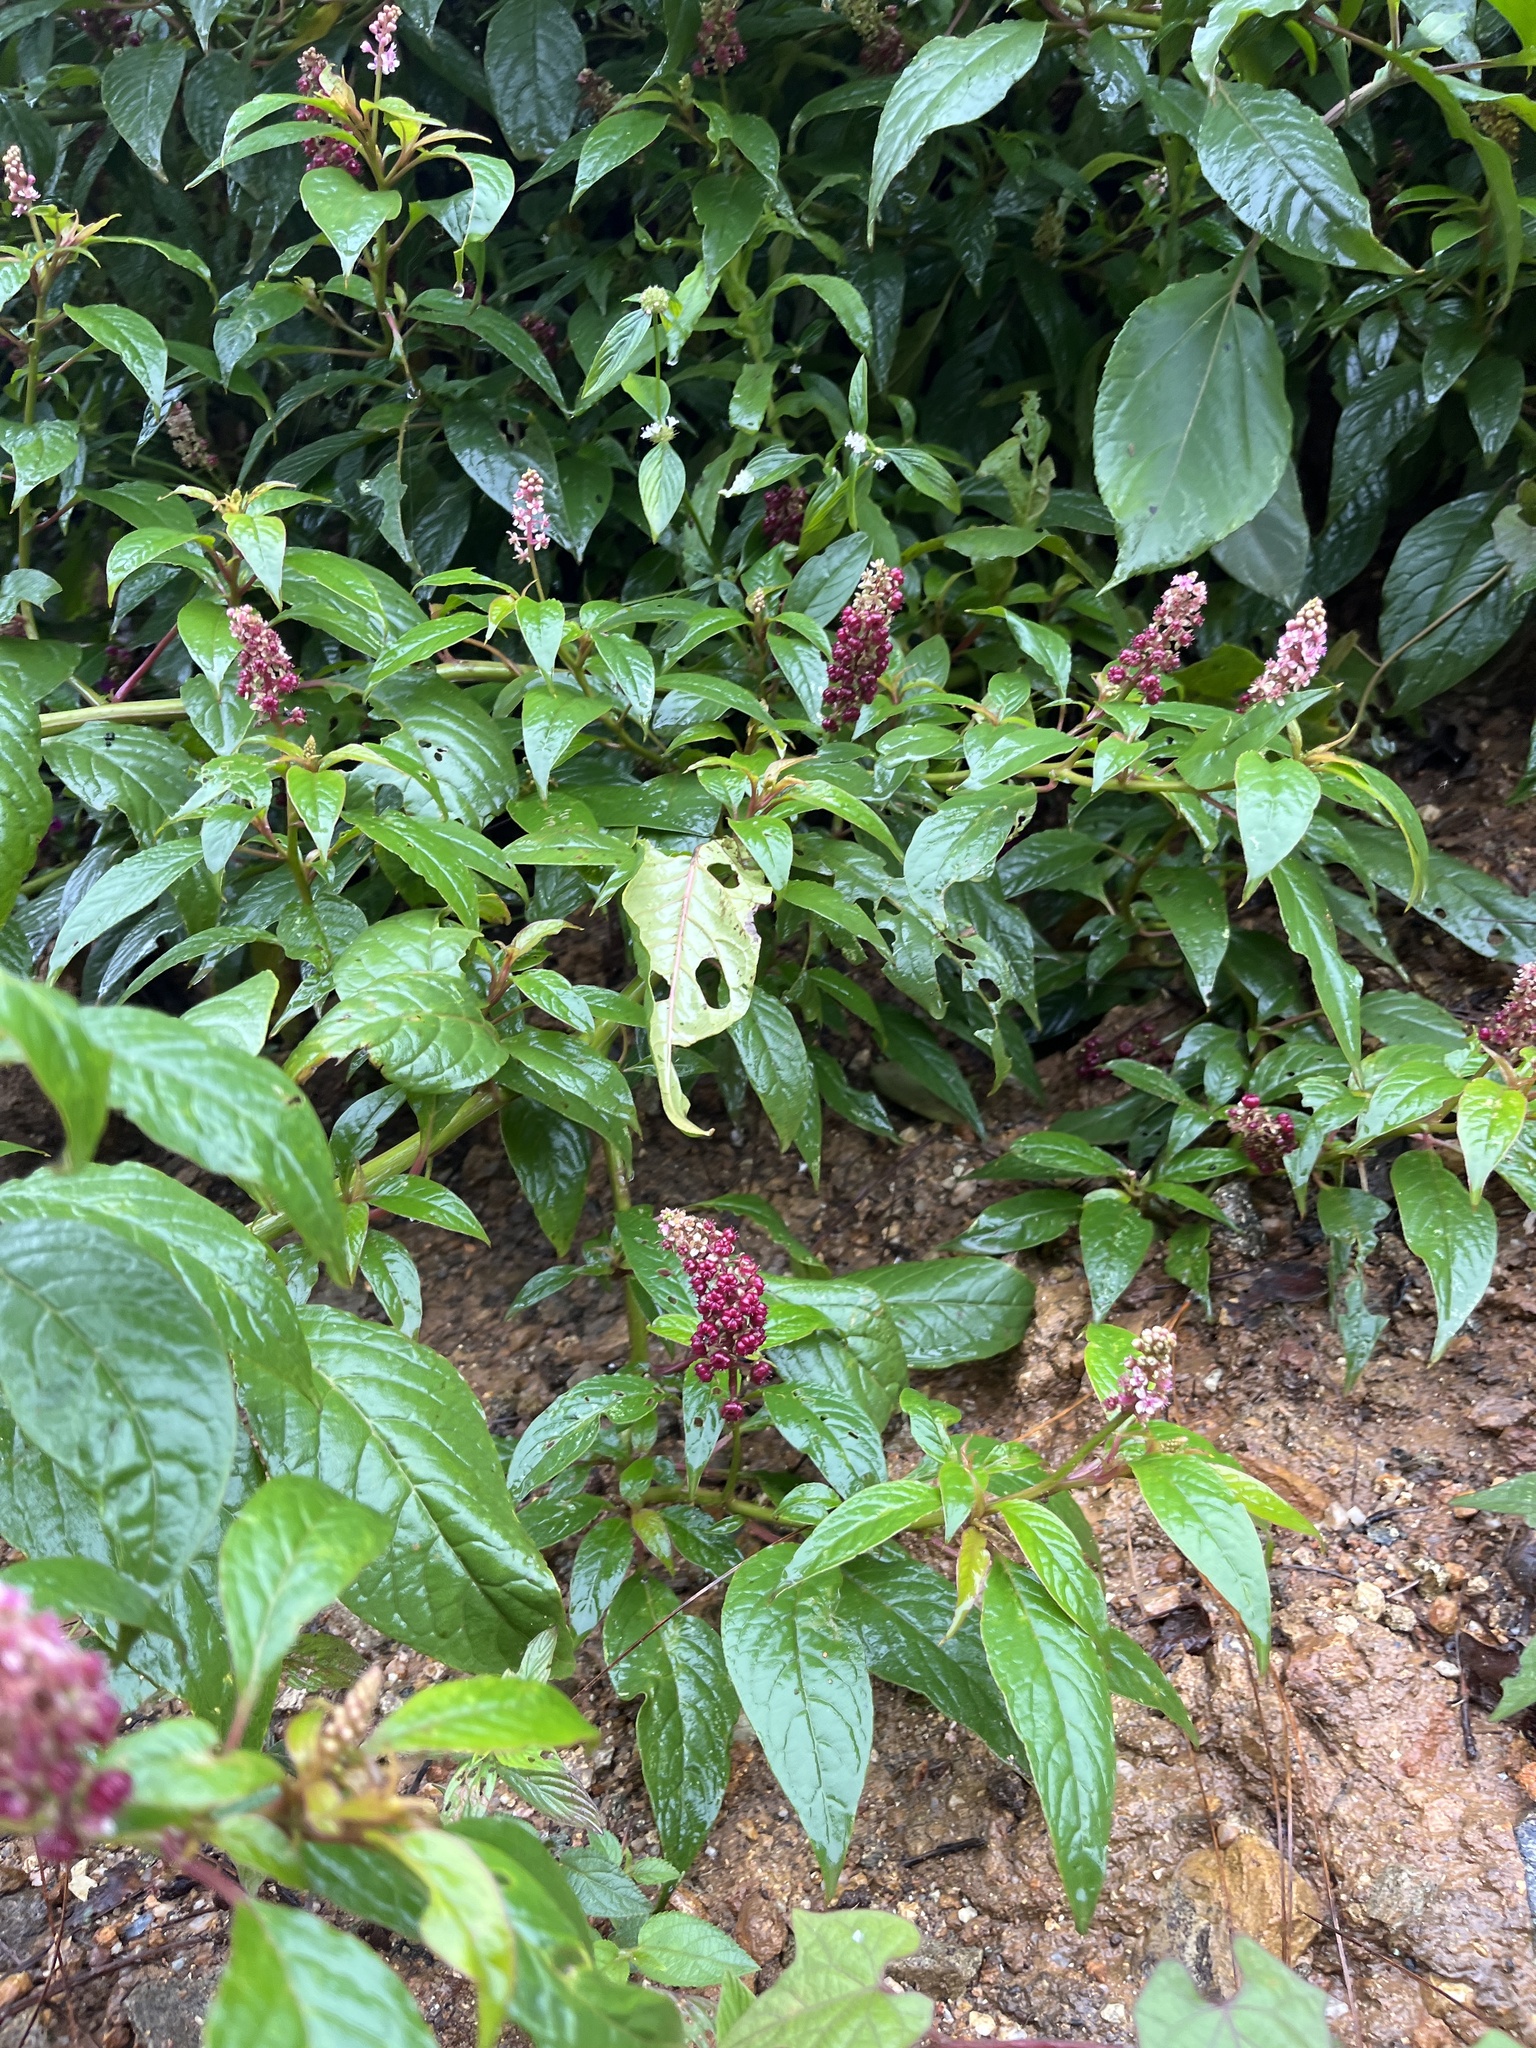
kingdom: Plantae
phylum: Tracheophyta
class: Magnoliopsida
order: Caryophyllales
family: Phytolaccaceae
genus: Phytolacca
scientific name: Phytolacca rugosa
